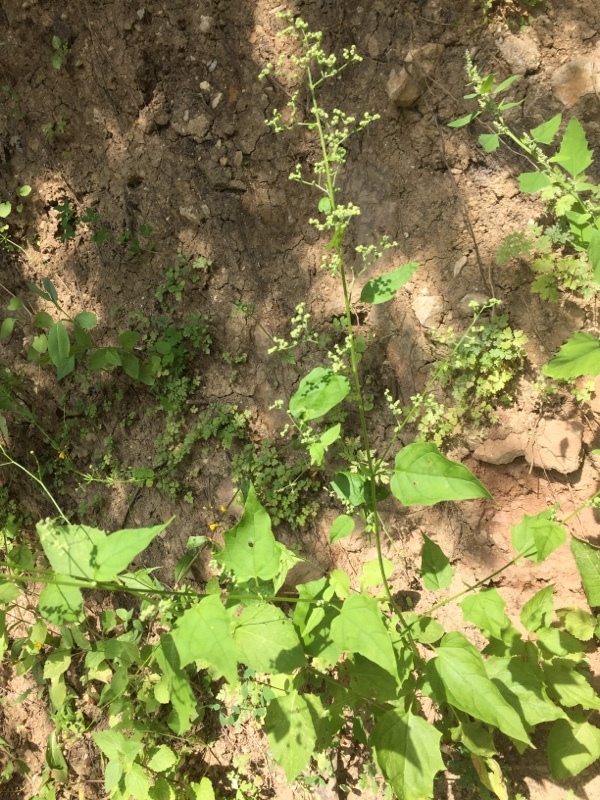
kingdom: Plantae
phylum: Tracheophyta
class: Magnoliopsida
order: Caryophyllales
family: Amaranthaceae
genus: Lipandra
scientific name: Lipandra polysperma
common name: Many-seed goosefoot
